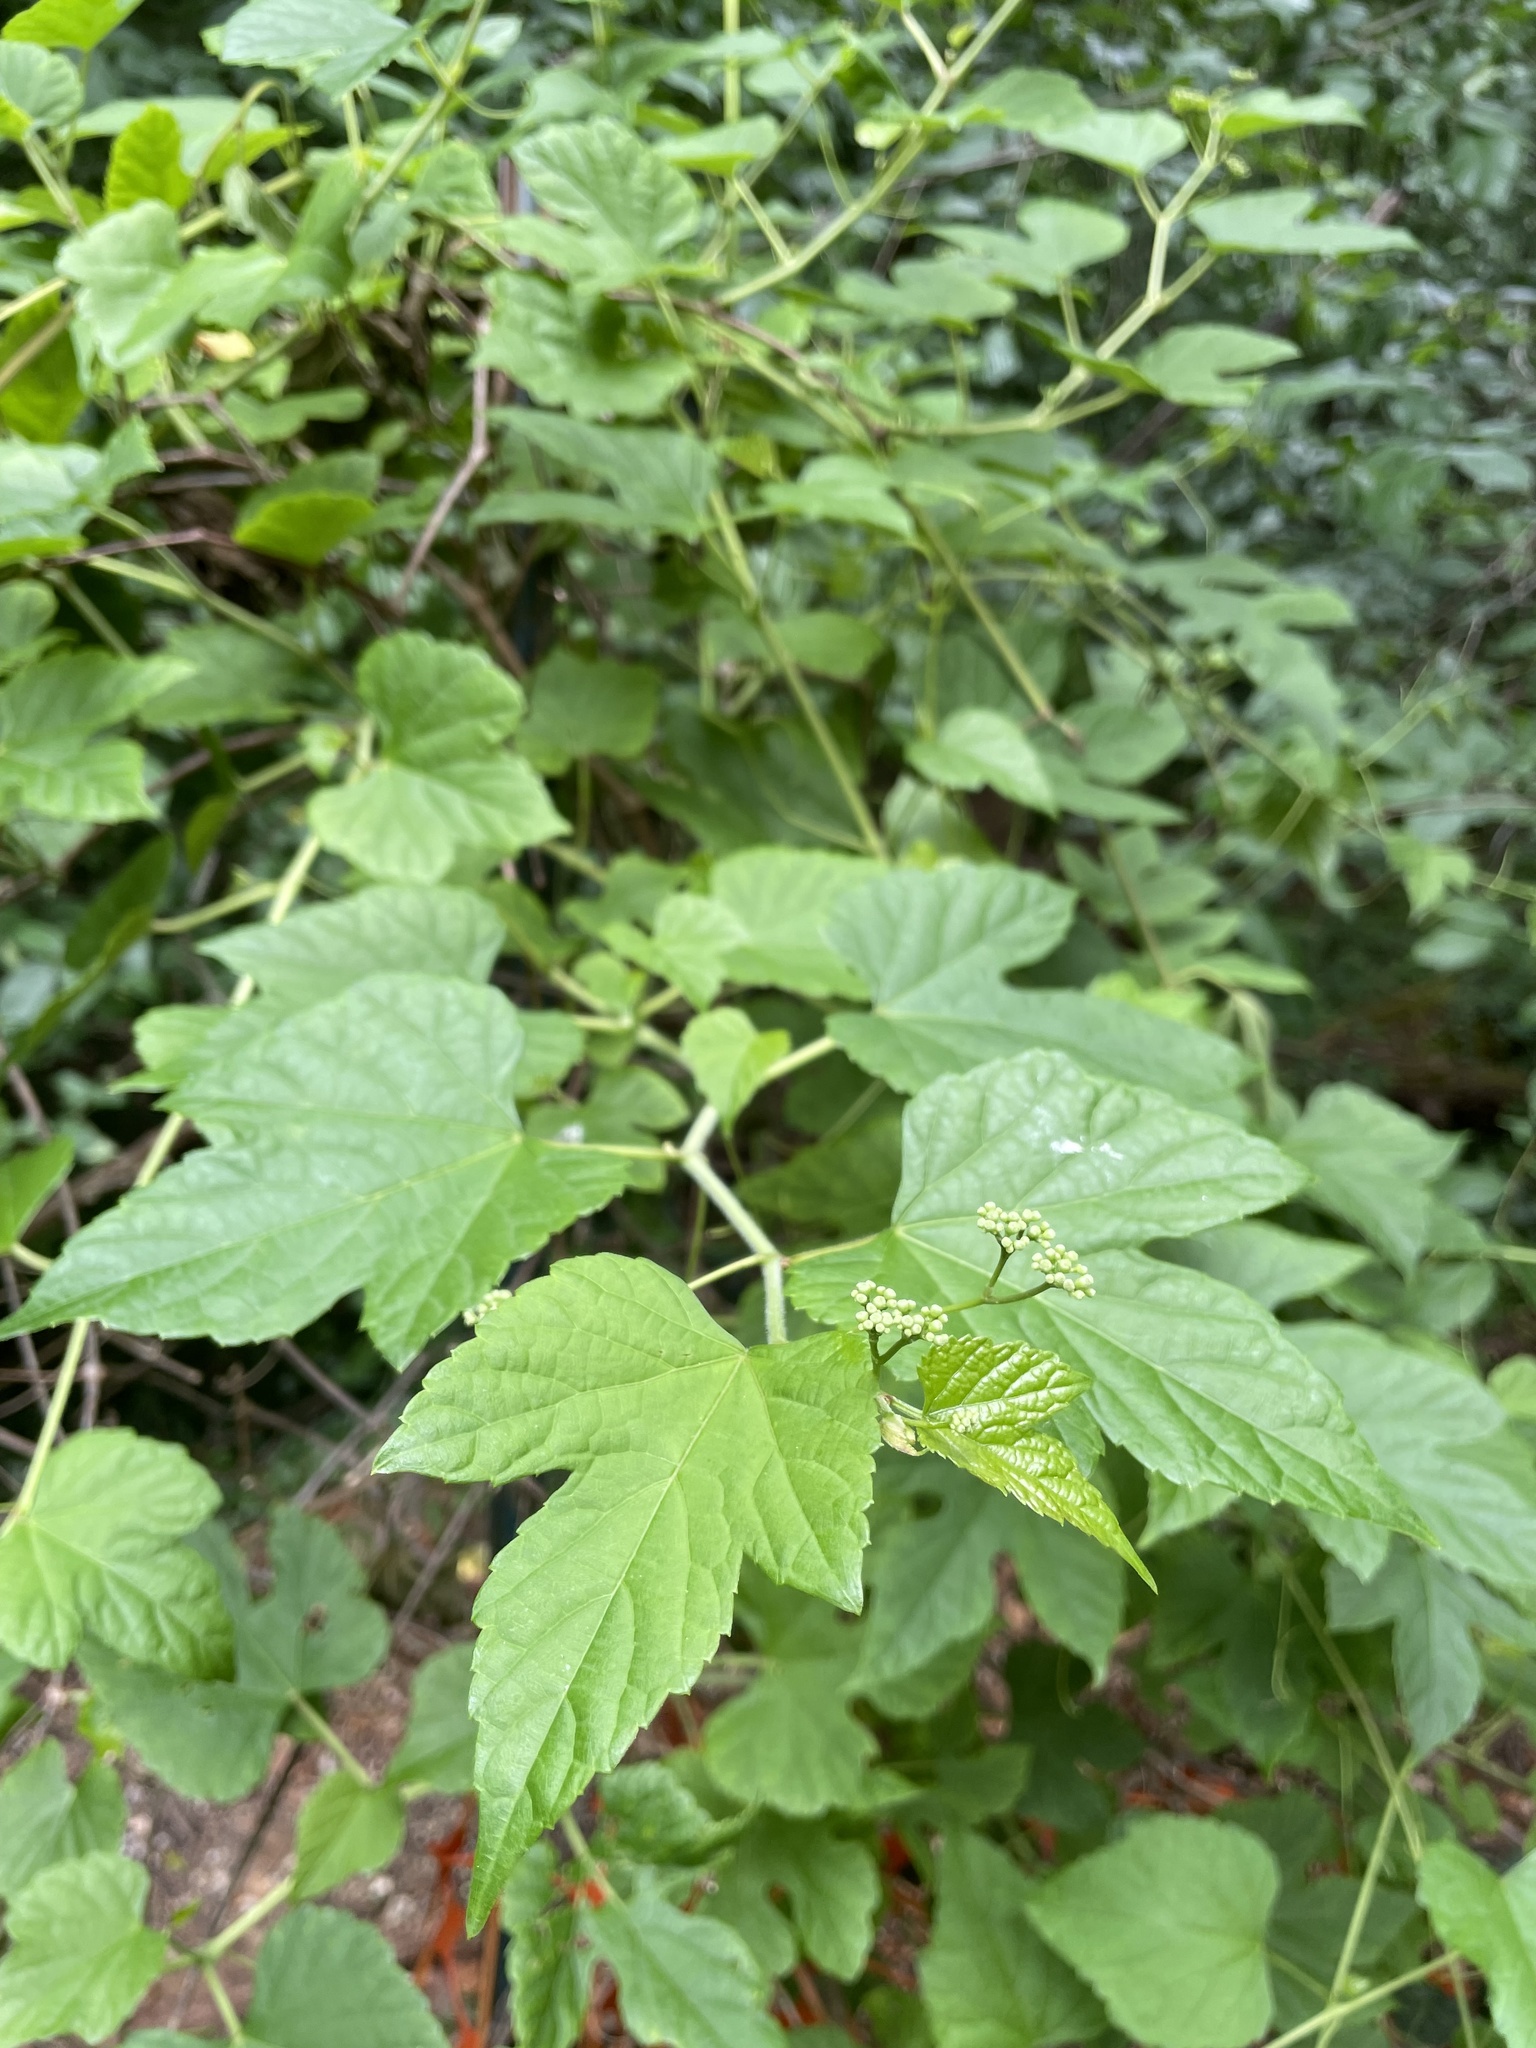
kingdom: Plantae
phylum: Tracheophyta
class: Magnoliopsida
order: Vitales
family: Vitaceae
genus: Ampelopsis
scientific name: Ampelopsis glandulosa
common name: Amur peppervine
